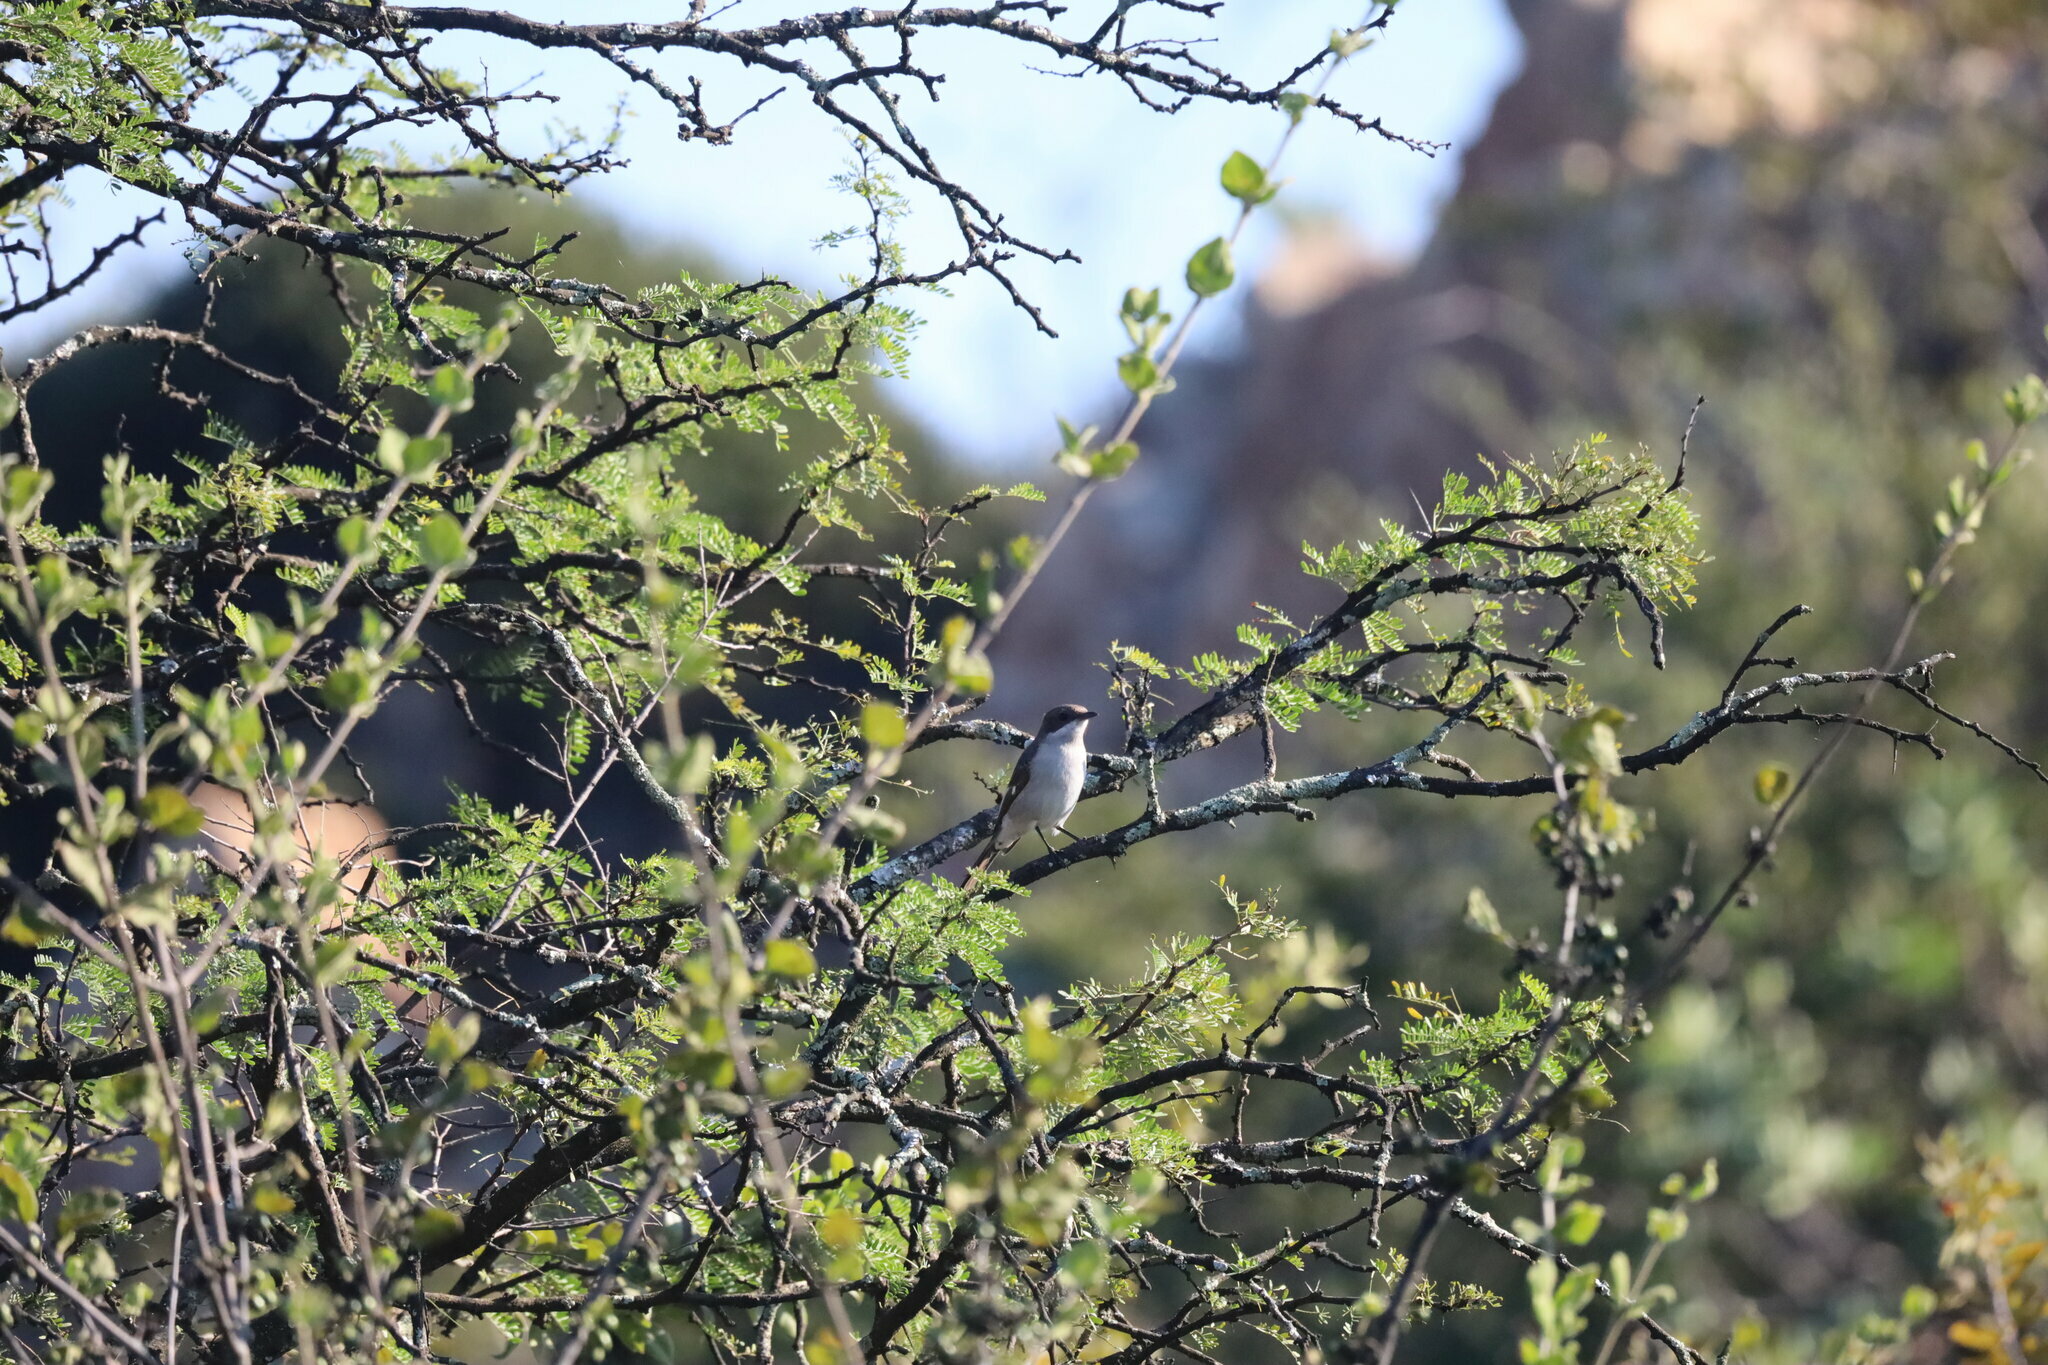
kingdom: Animalia
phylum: Chordata
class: Aves
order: Passeriformes
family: Muscicapidae
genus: Sigelus
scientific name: Sigelus silens
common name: Fiscal flycatcher
